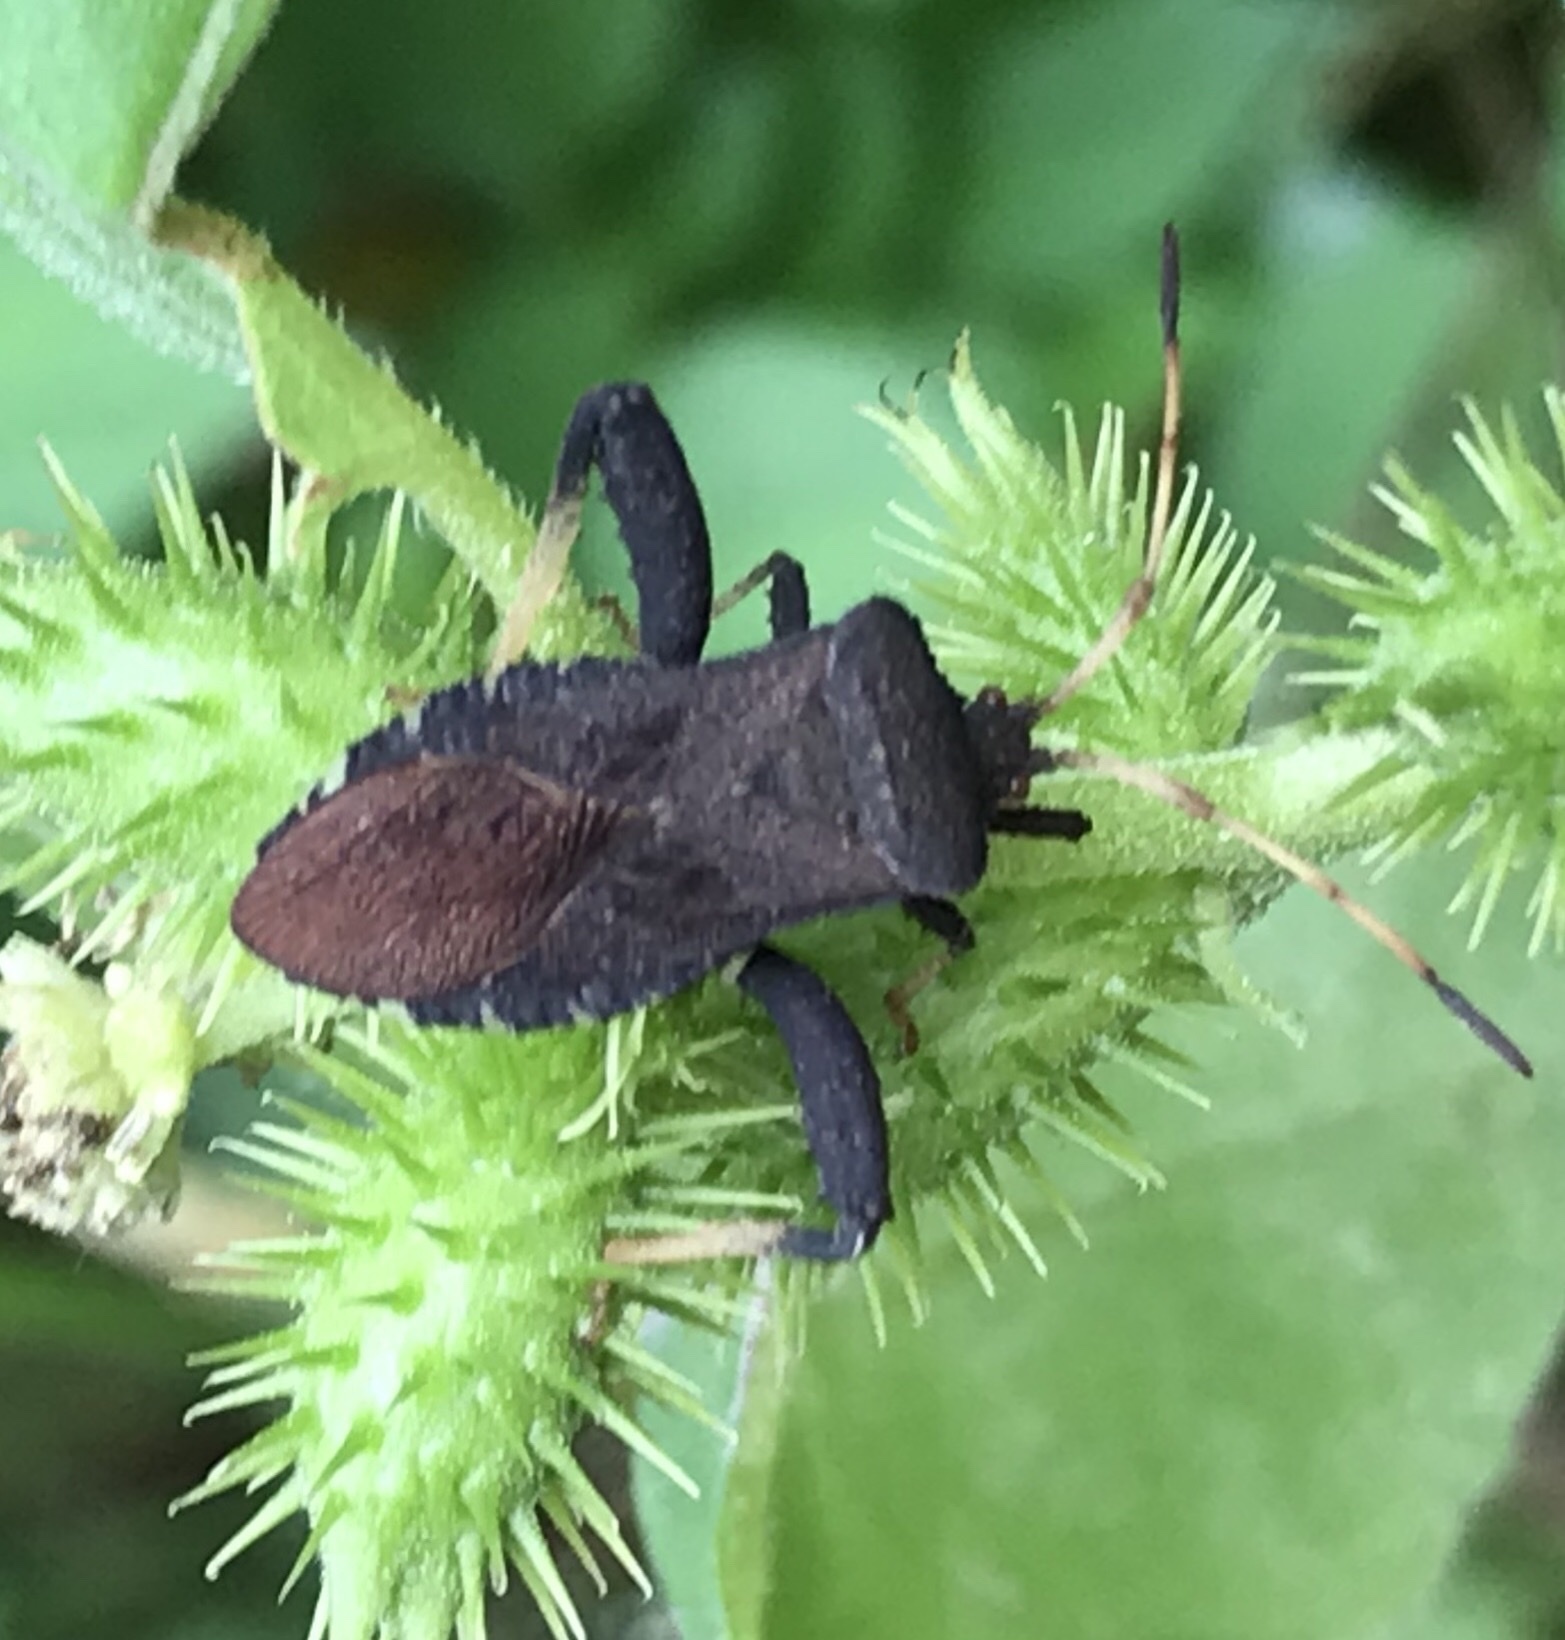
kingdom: Animalia
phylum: Arthropoda
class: Insecta
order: Hemiptera
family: Coreidae
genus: Euthochtha
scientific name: Euthochtha galeator
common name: Helmeted squash bug
